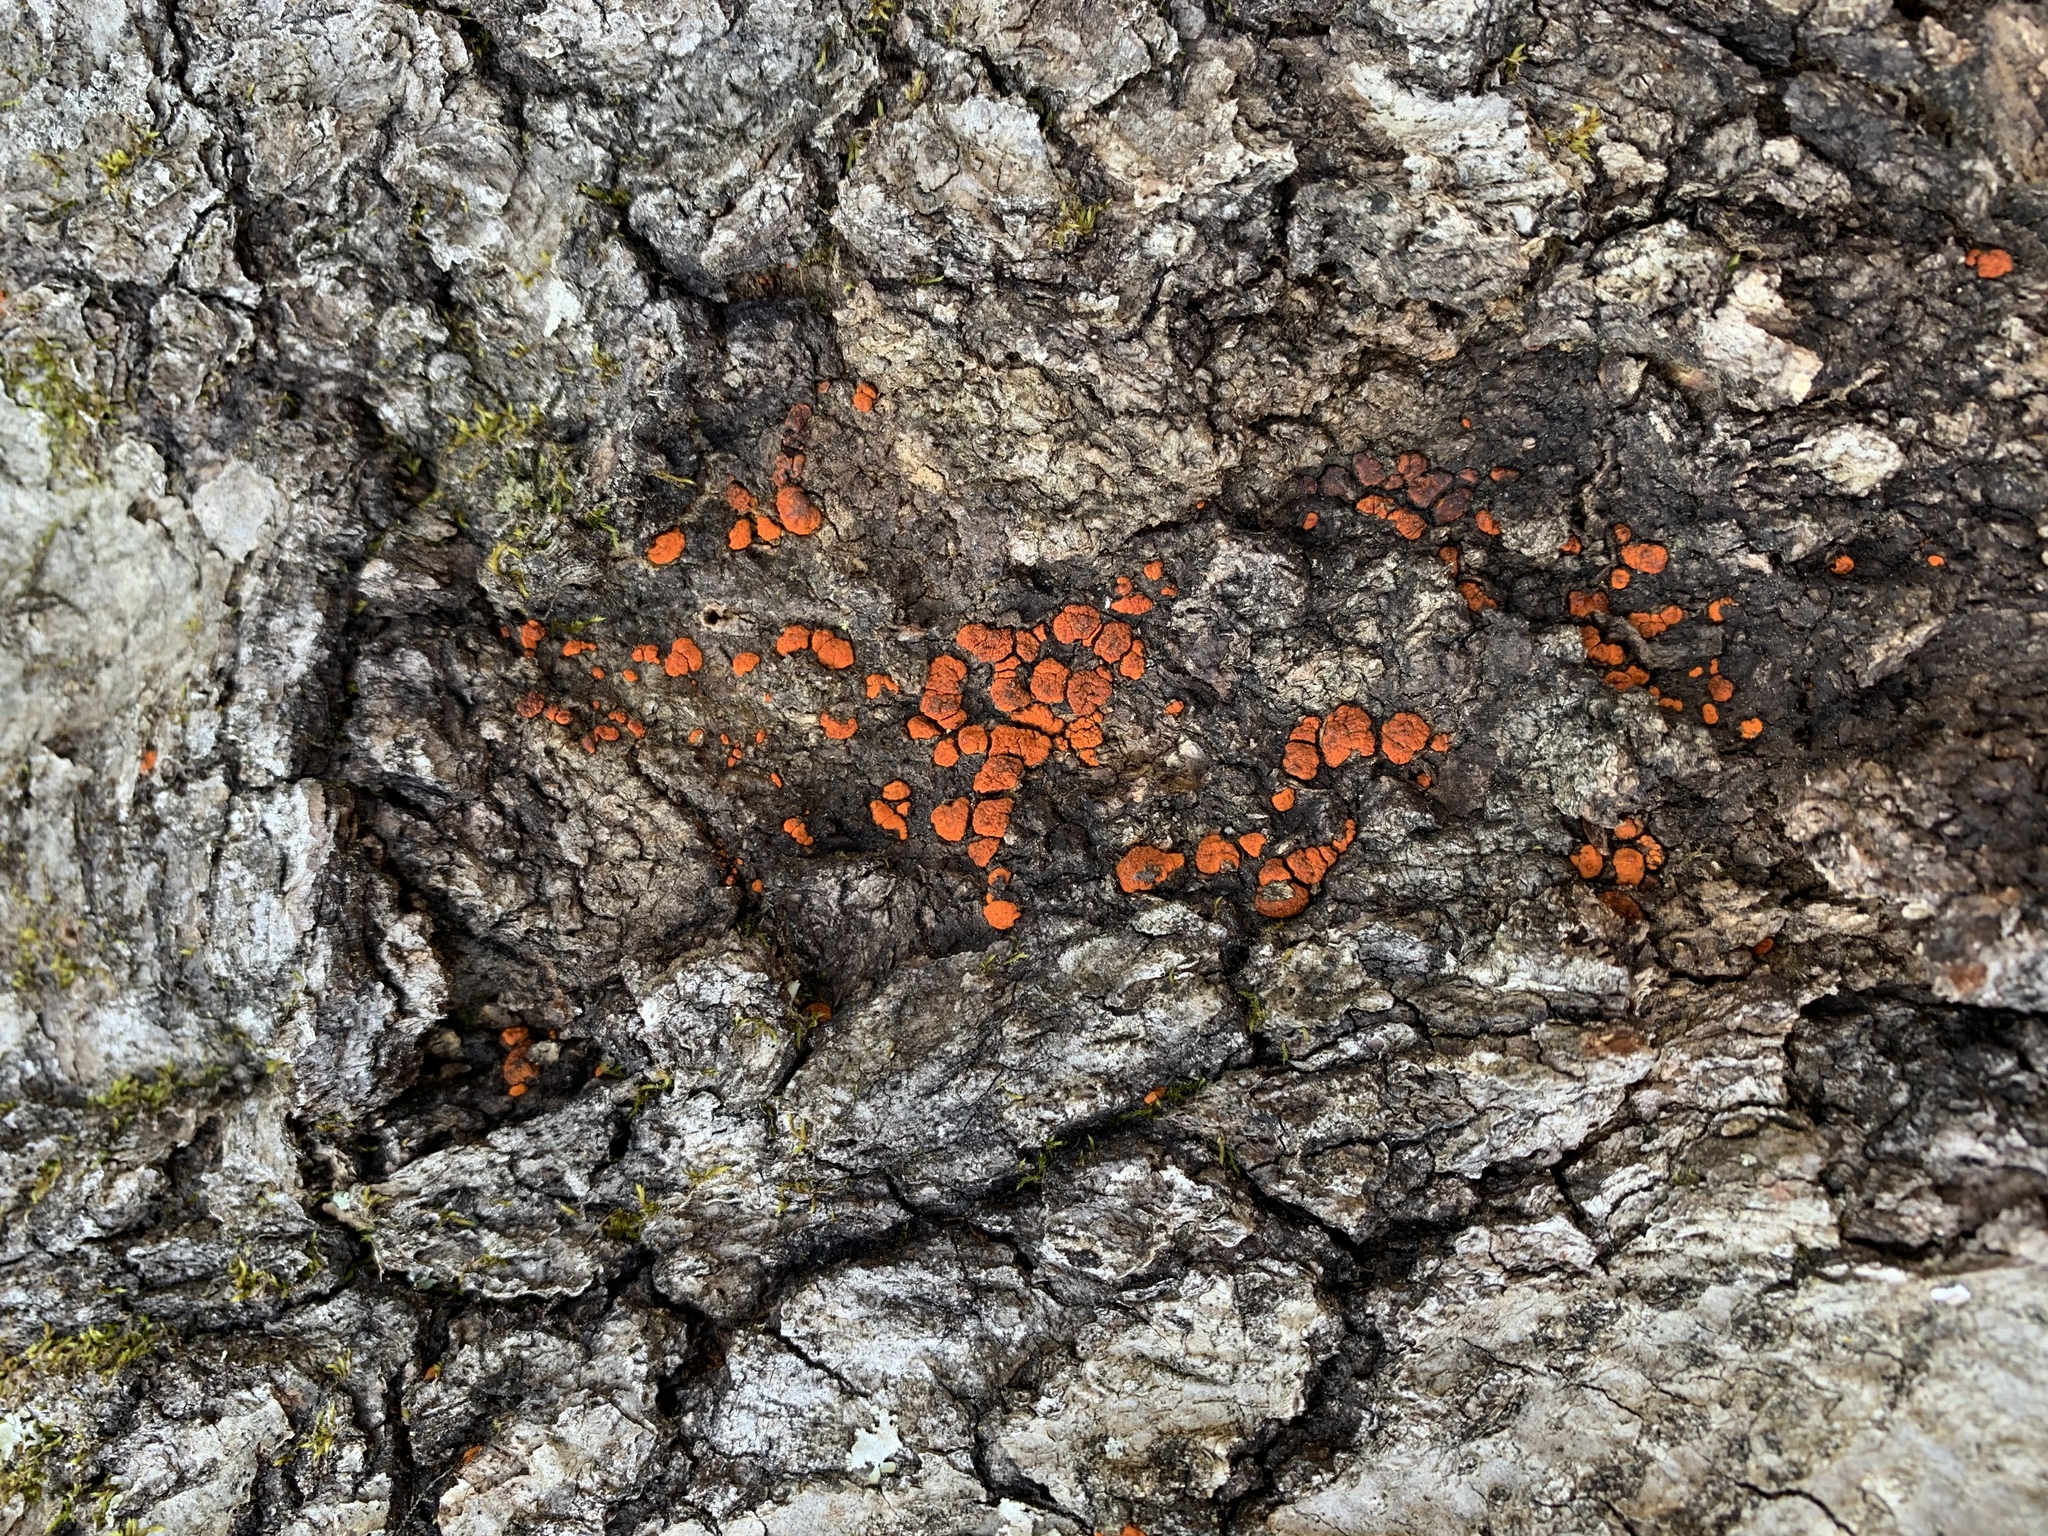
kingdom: Fungi
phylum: Ascomycota
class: Sordariomycetes
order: Diaporthales
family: Cryphonectriaceae
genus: Amphilogia
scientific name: Amphilogia gyrosa
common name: Orange hobnail canker
